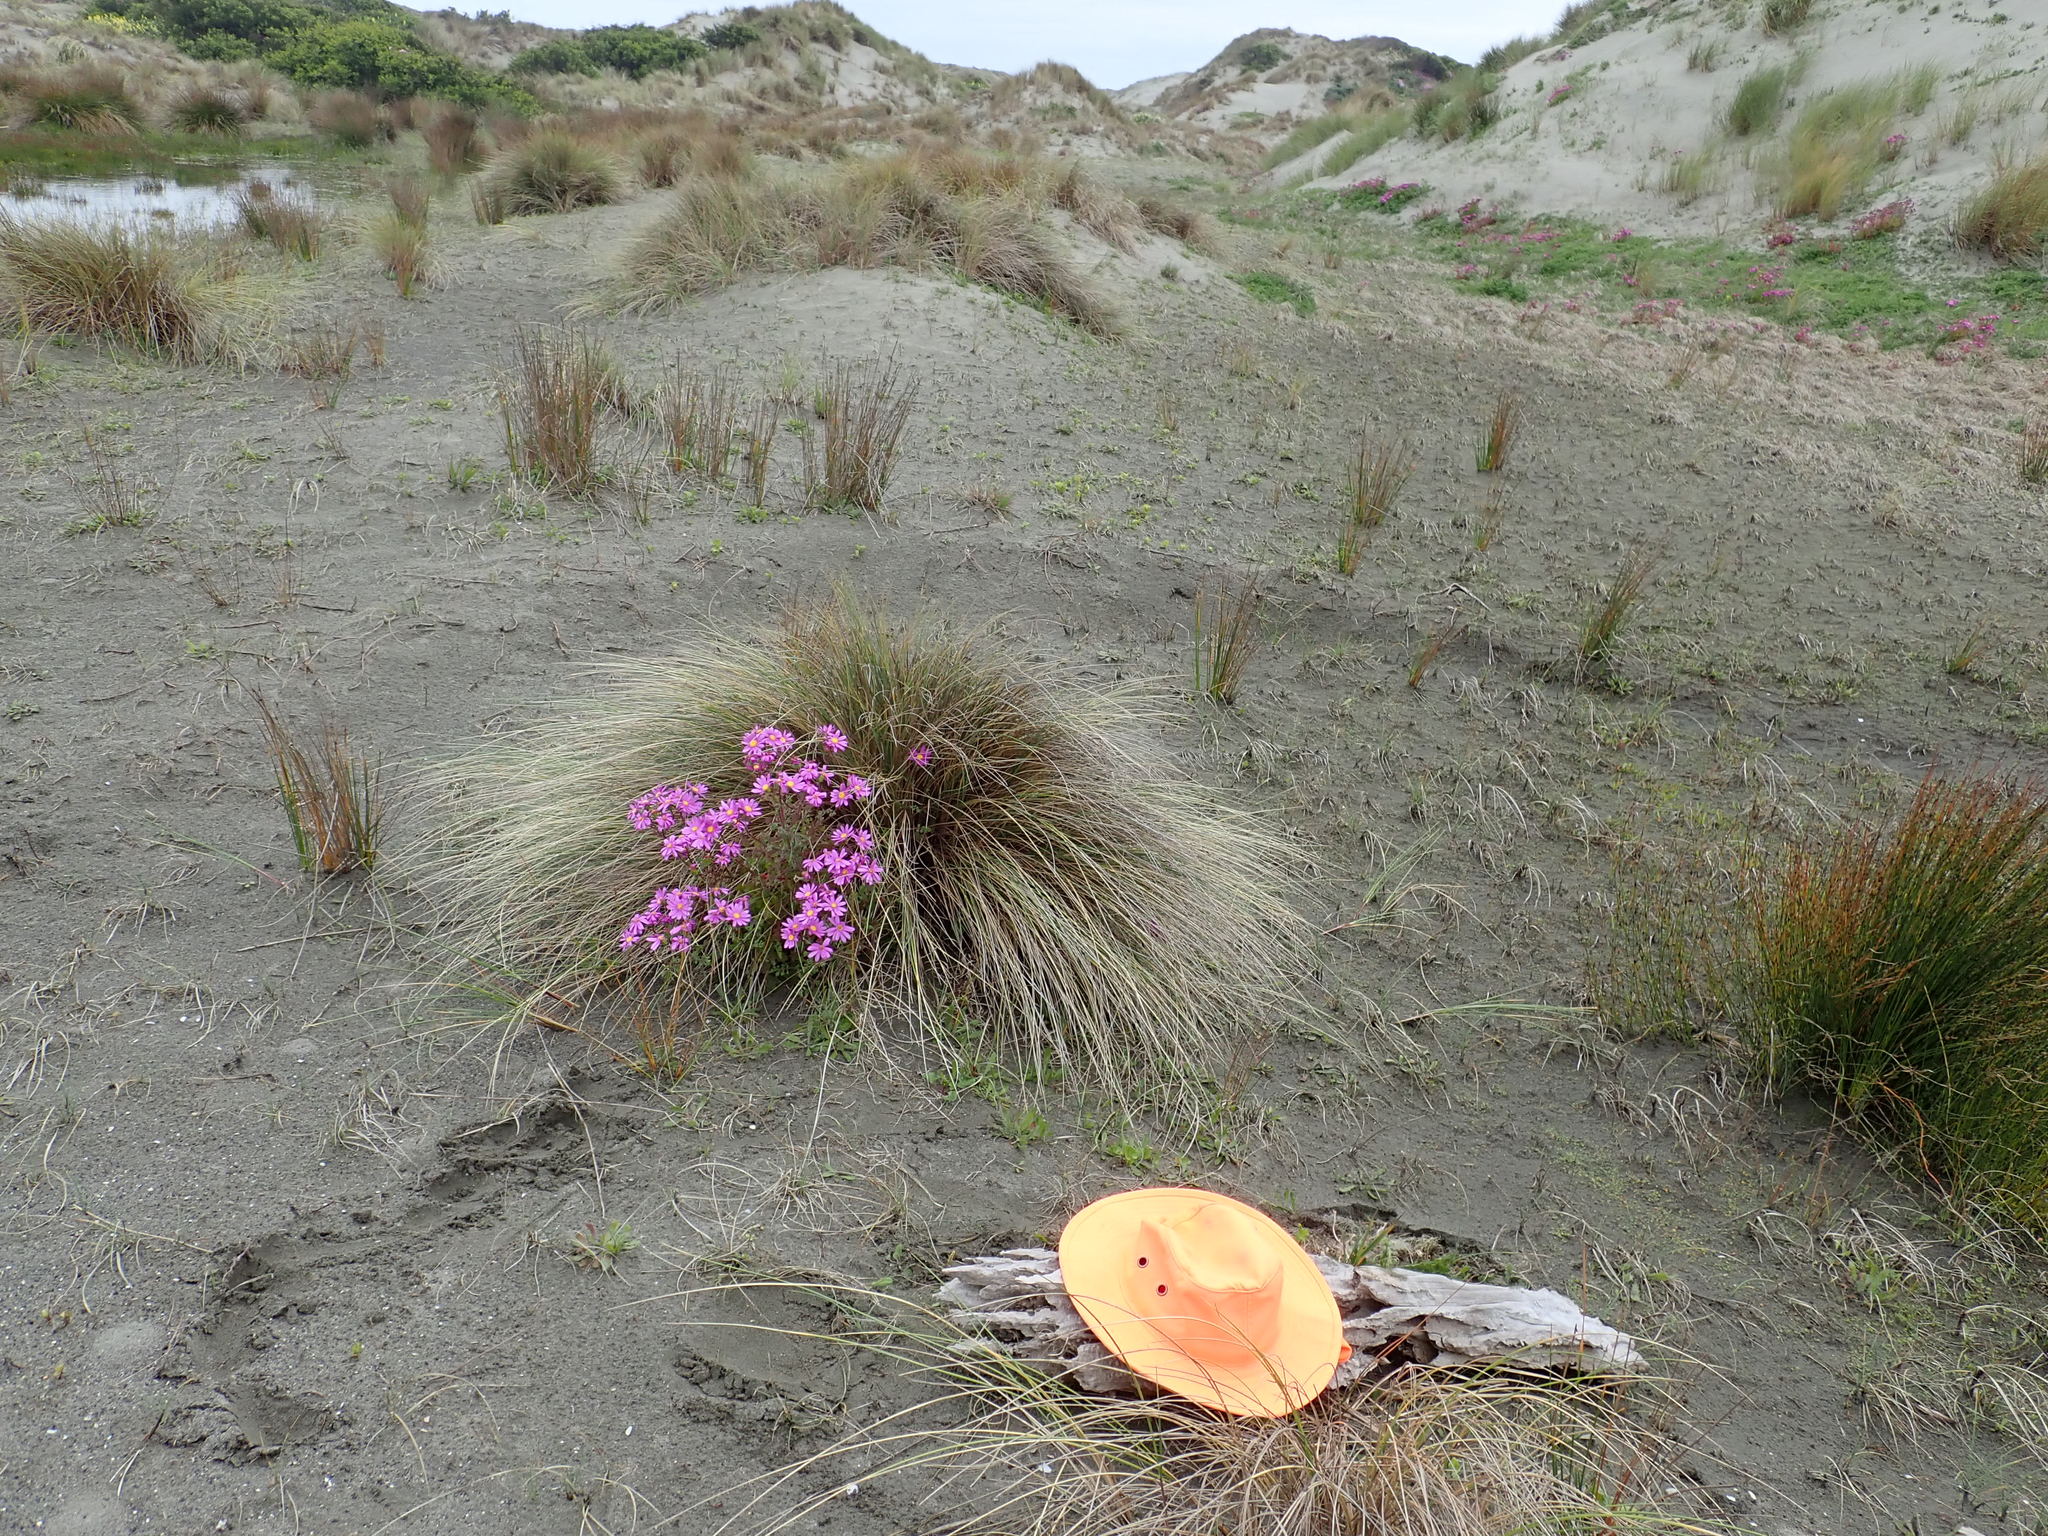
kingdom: Animalia
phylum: Arthropoda
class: Insecta
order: Coleoptera
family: Carabidae
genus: Harpalus
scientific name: Harpalus affinis
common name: Polychrome harp ground beetle
